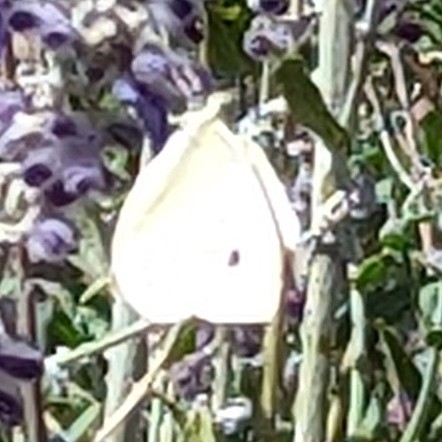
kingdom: Animalia
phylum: Arthropoda
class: Insecta
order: Lepidoptera
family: Pieridae
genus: Pieris
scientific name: Pieris rapae
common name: Small white
